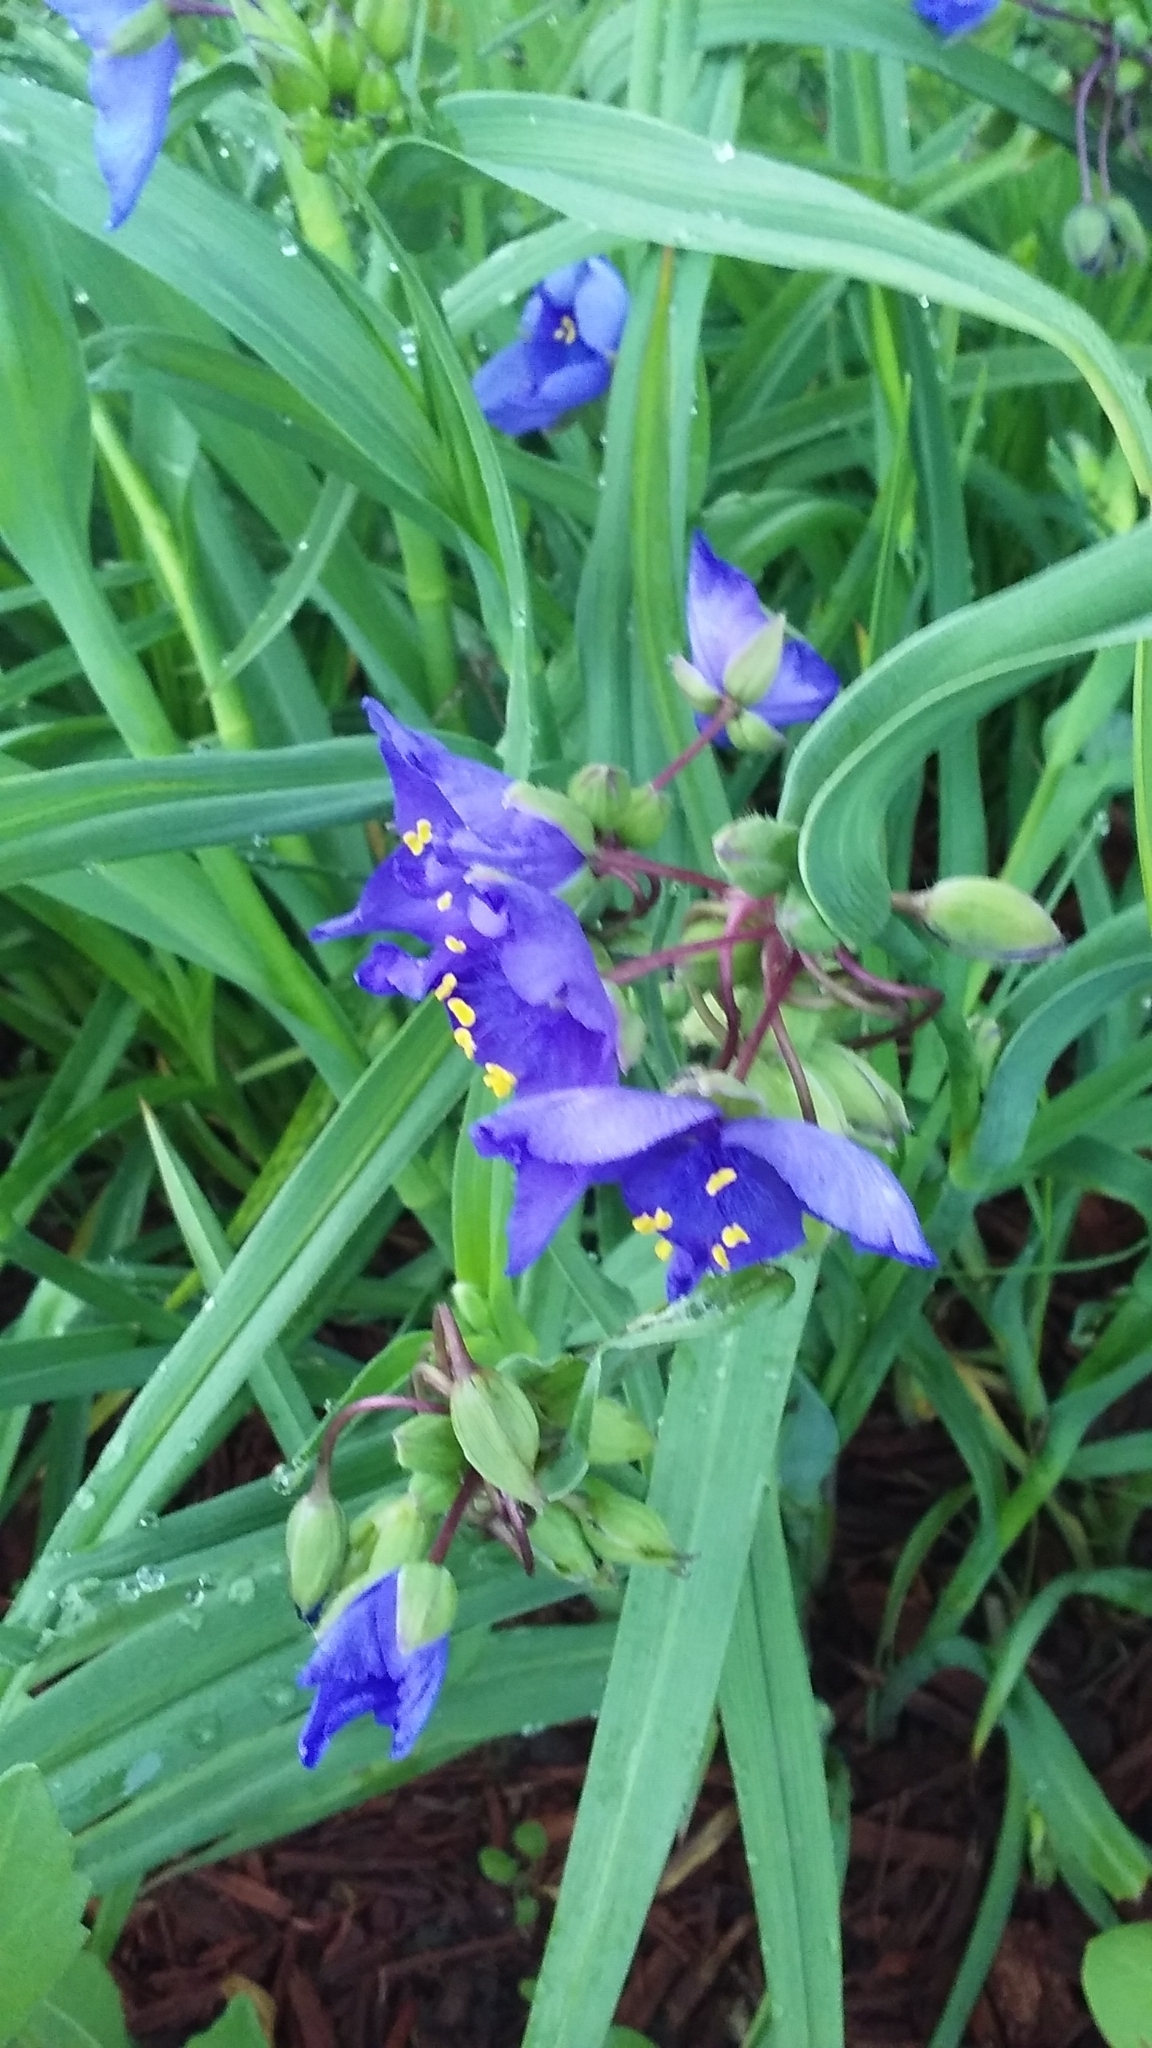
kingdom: Plantae
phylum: Tracheophyta
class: Liliopsida
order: Commelinales
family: Commelinaceae
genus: Tradescantia
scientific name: Tradescantia ohiensis
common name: Ohio spiderwort
